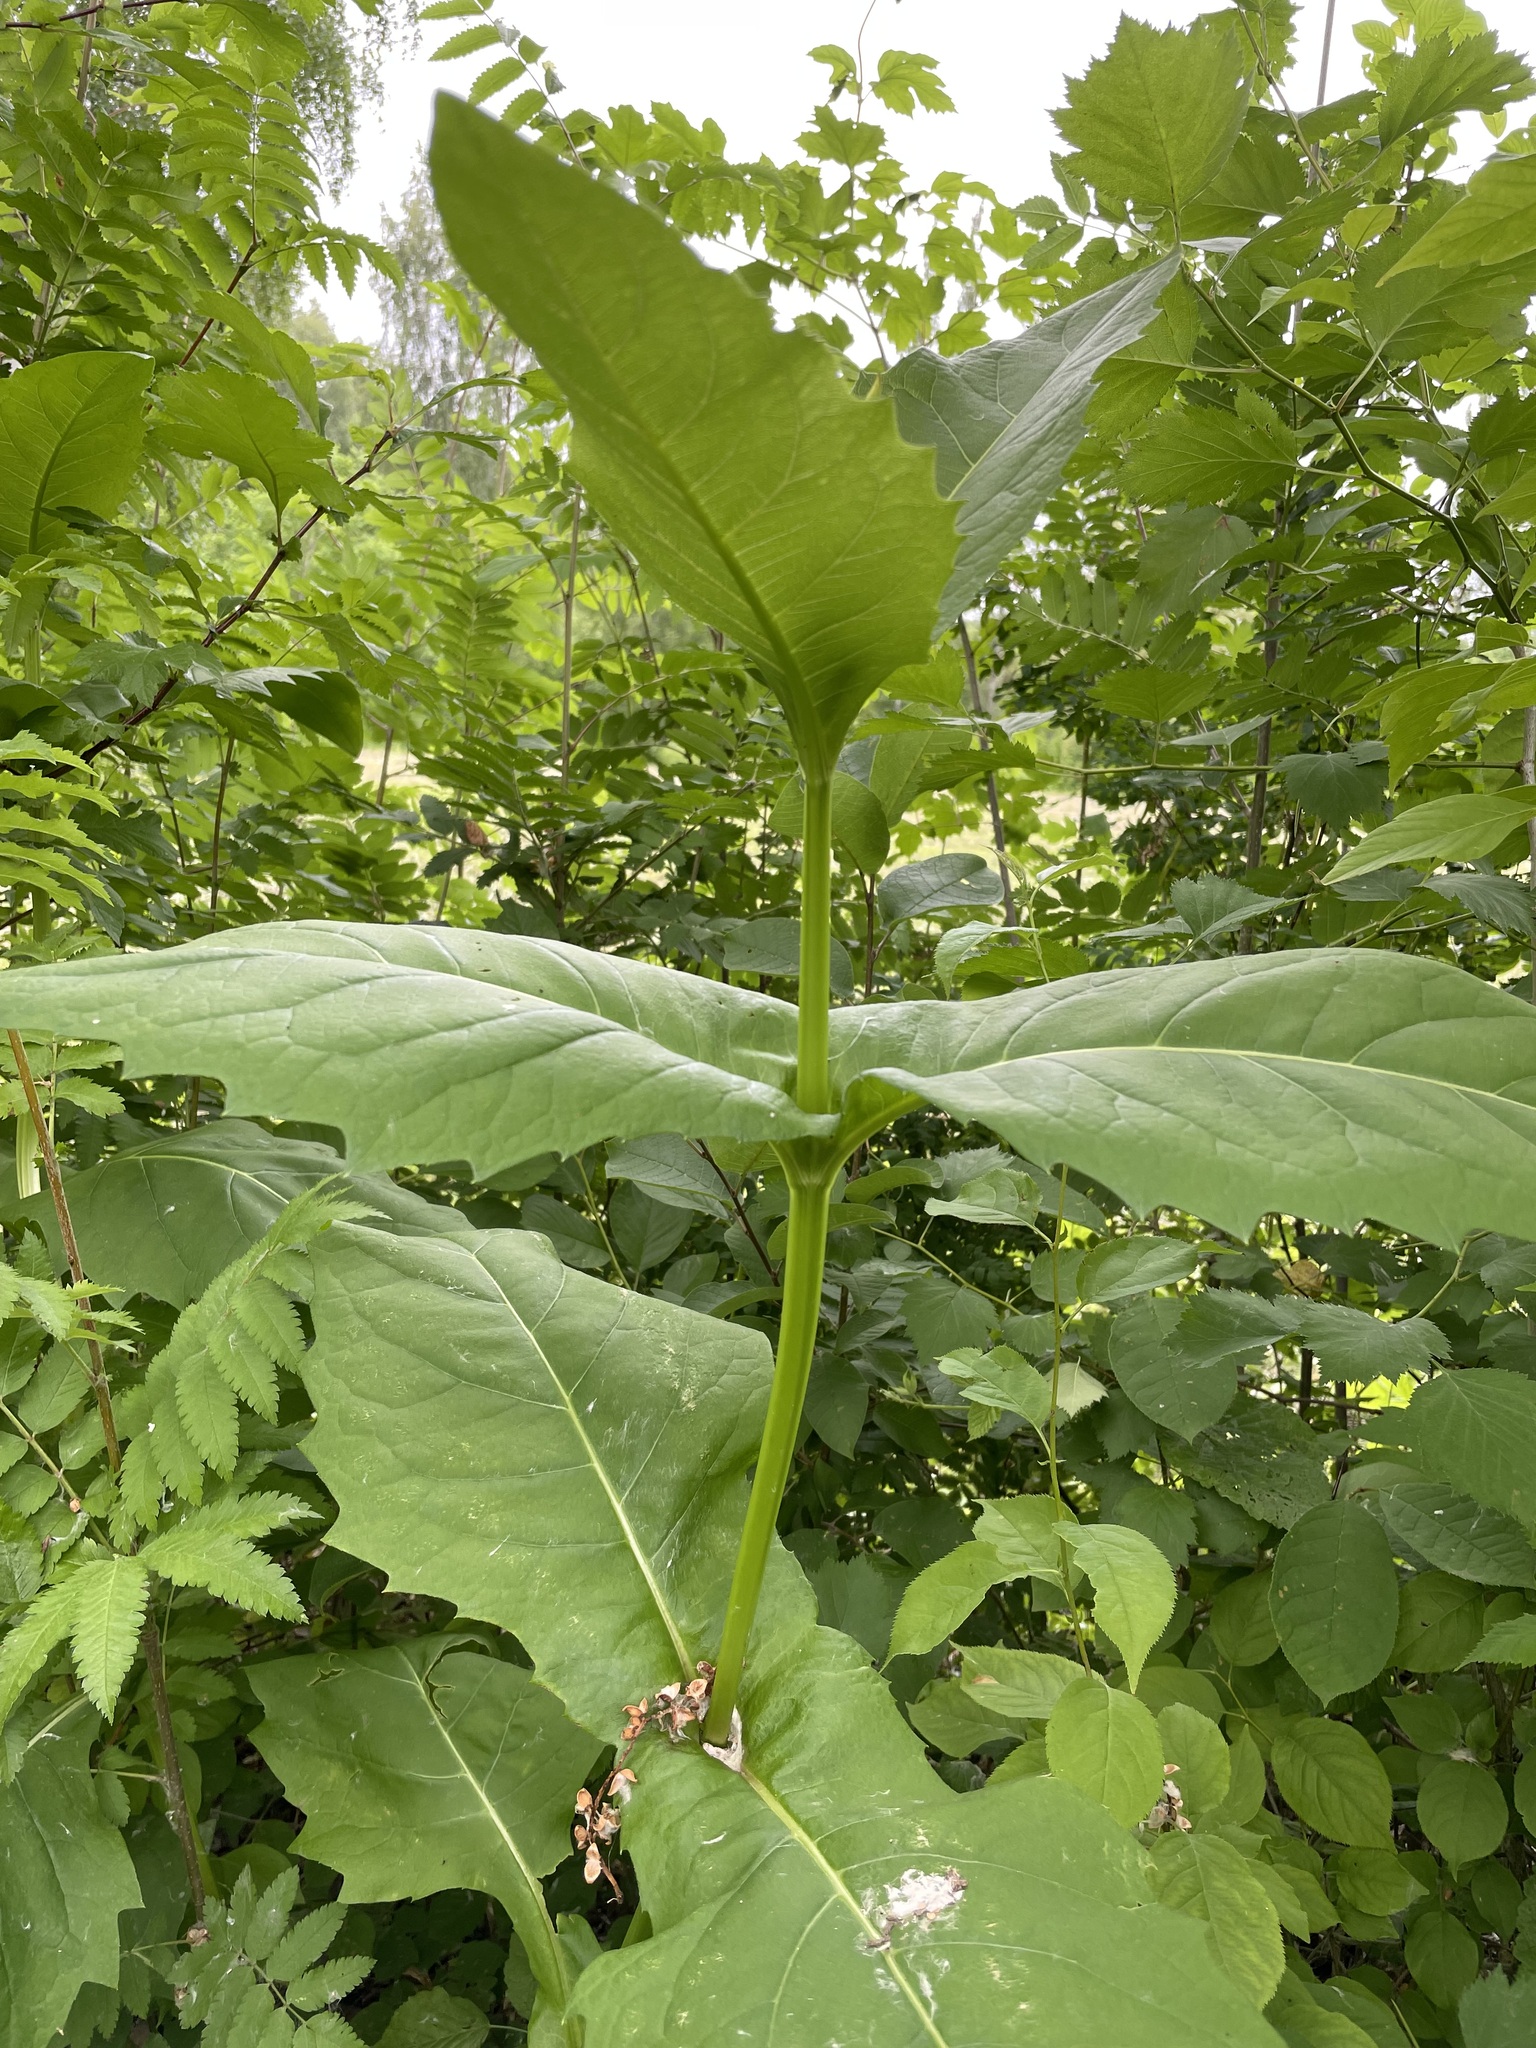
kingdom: Plantae
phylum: Tracheophyta
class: Magnoliopsida
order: Asterales
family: Asteraceae
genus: Silphium
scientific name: Silphium perfoliatum
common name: Cup-plant
